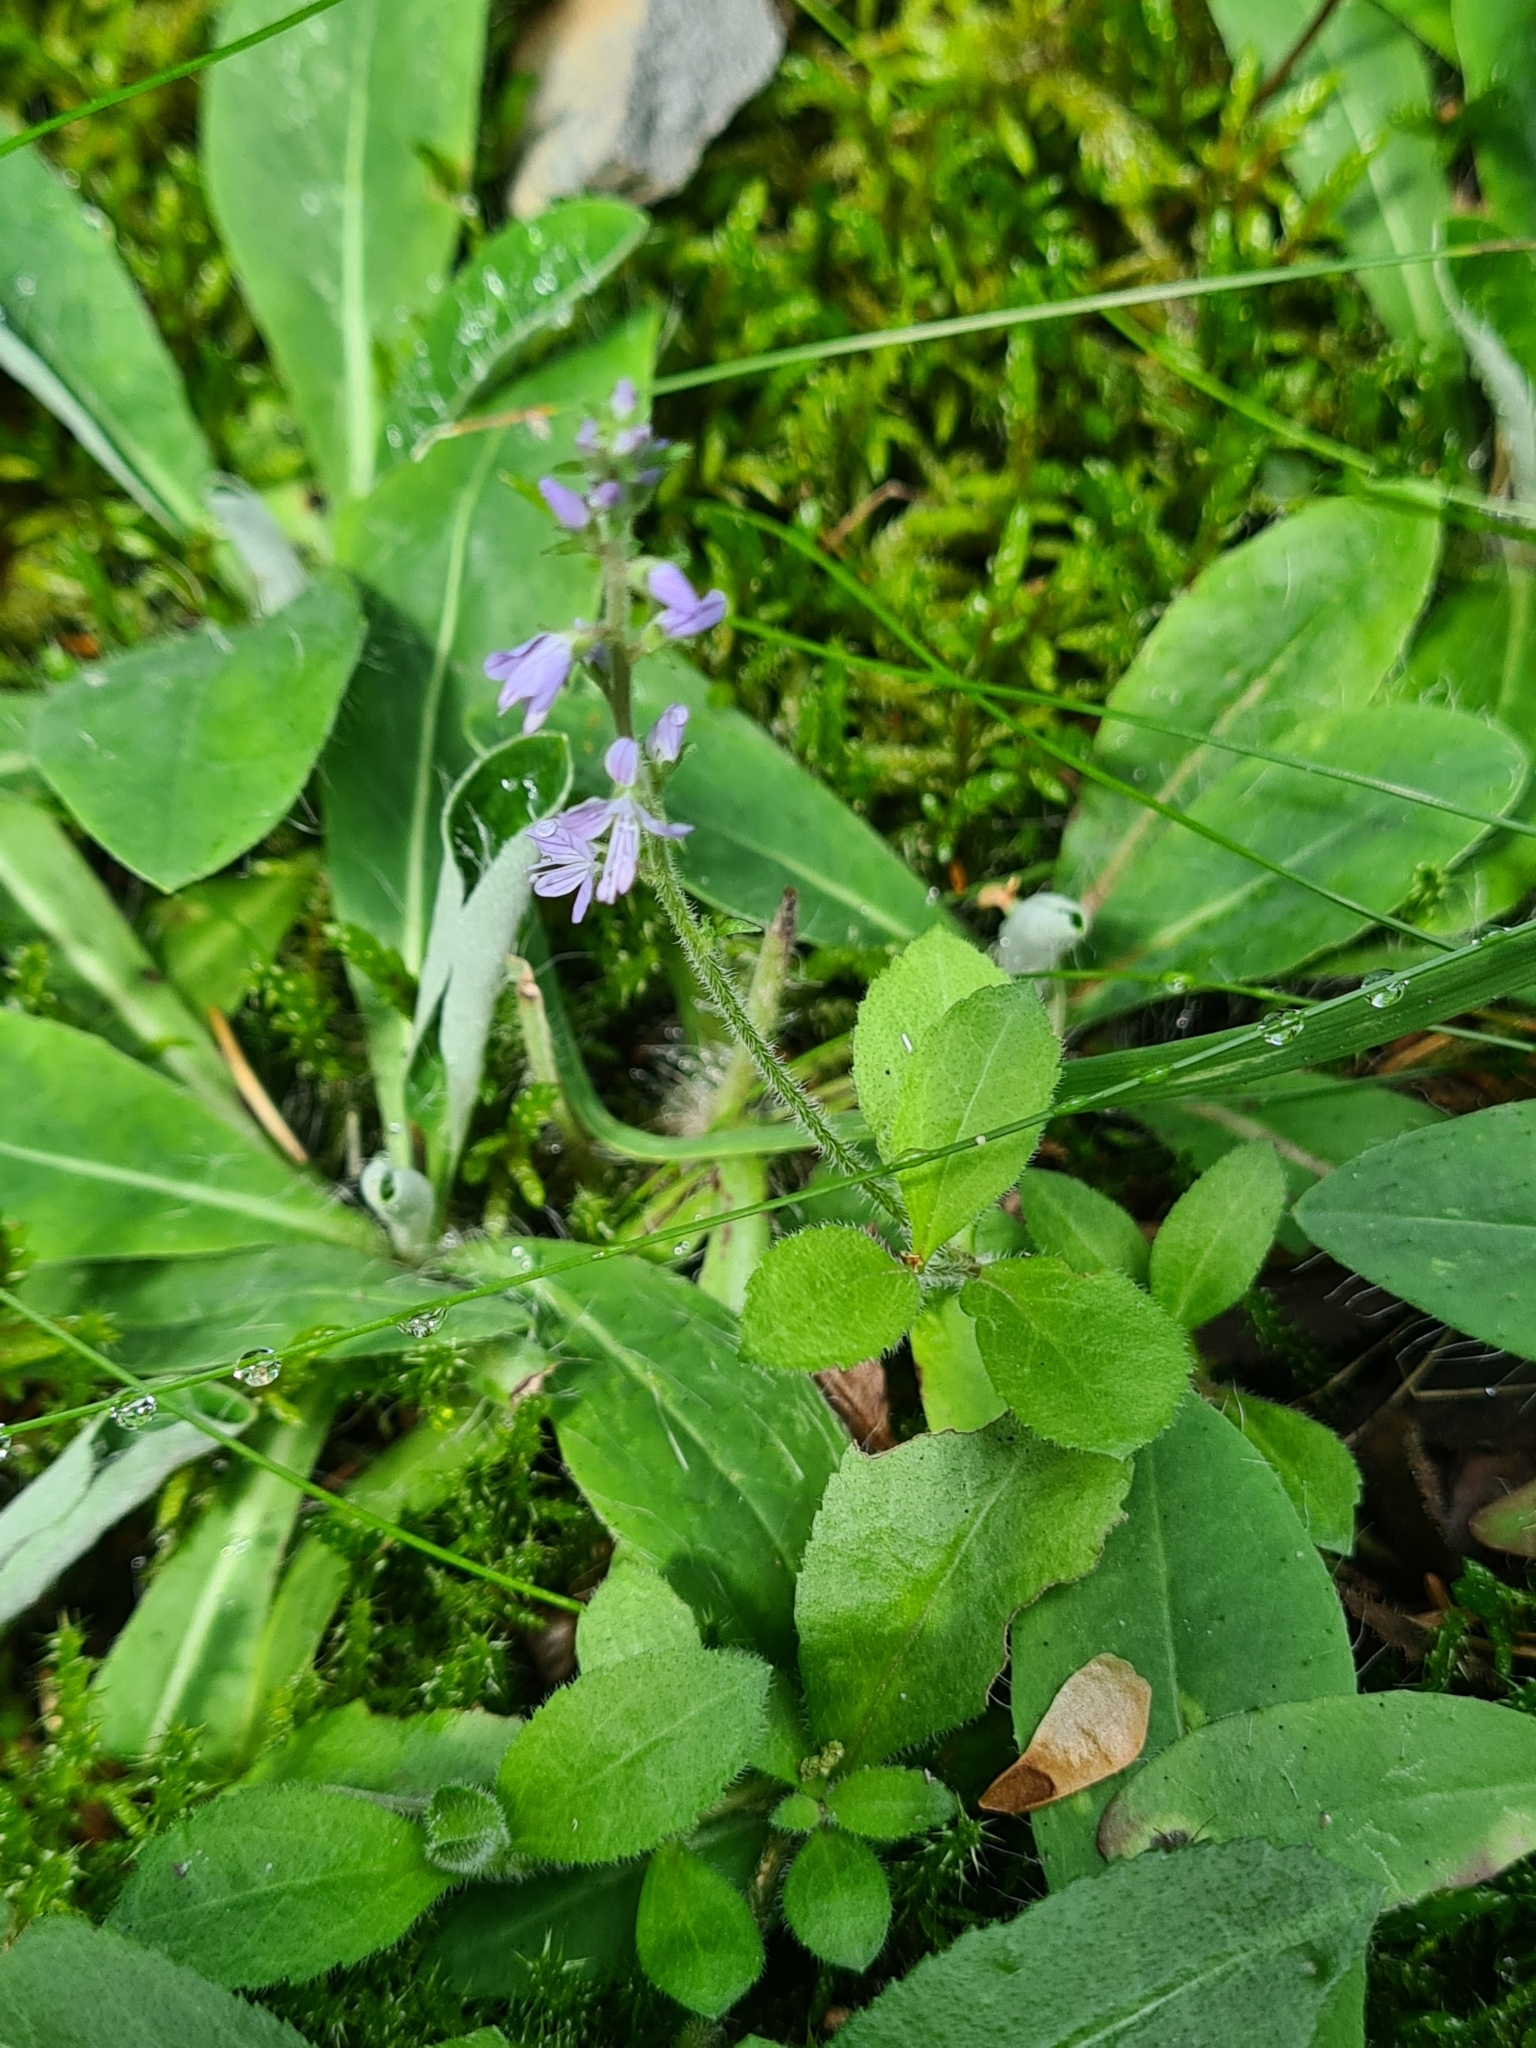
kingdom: Plantae
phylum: Tracheophyta
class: Magnoliopsida
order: Lamiales
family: Plantaginaceae
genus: Veronica
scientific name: Veronica officinalis
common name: Common speedwell
